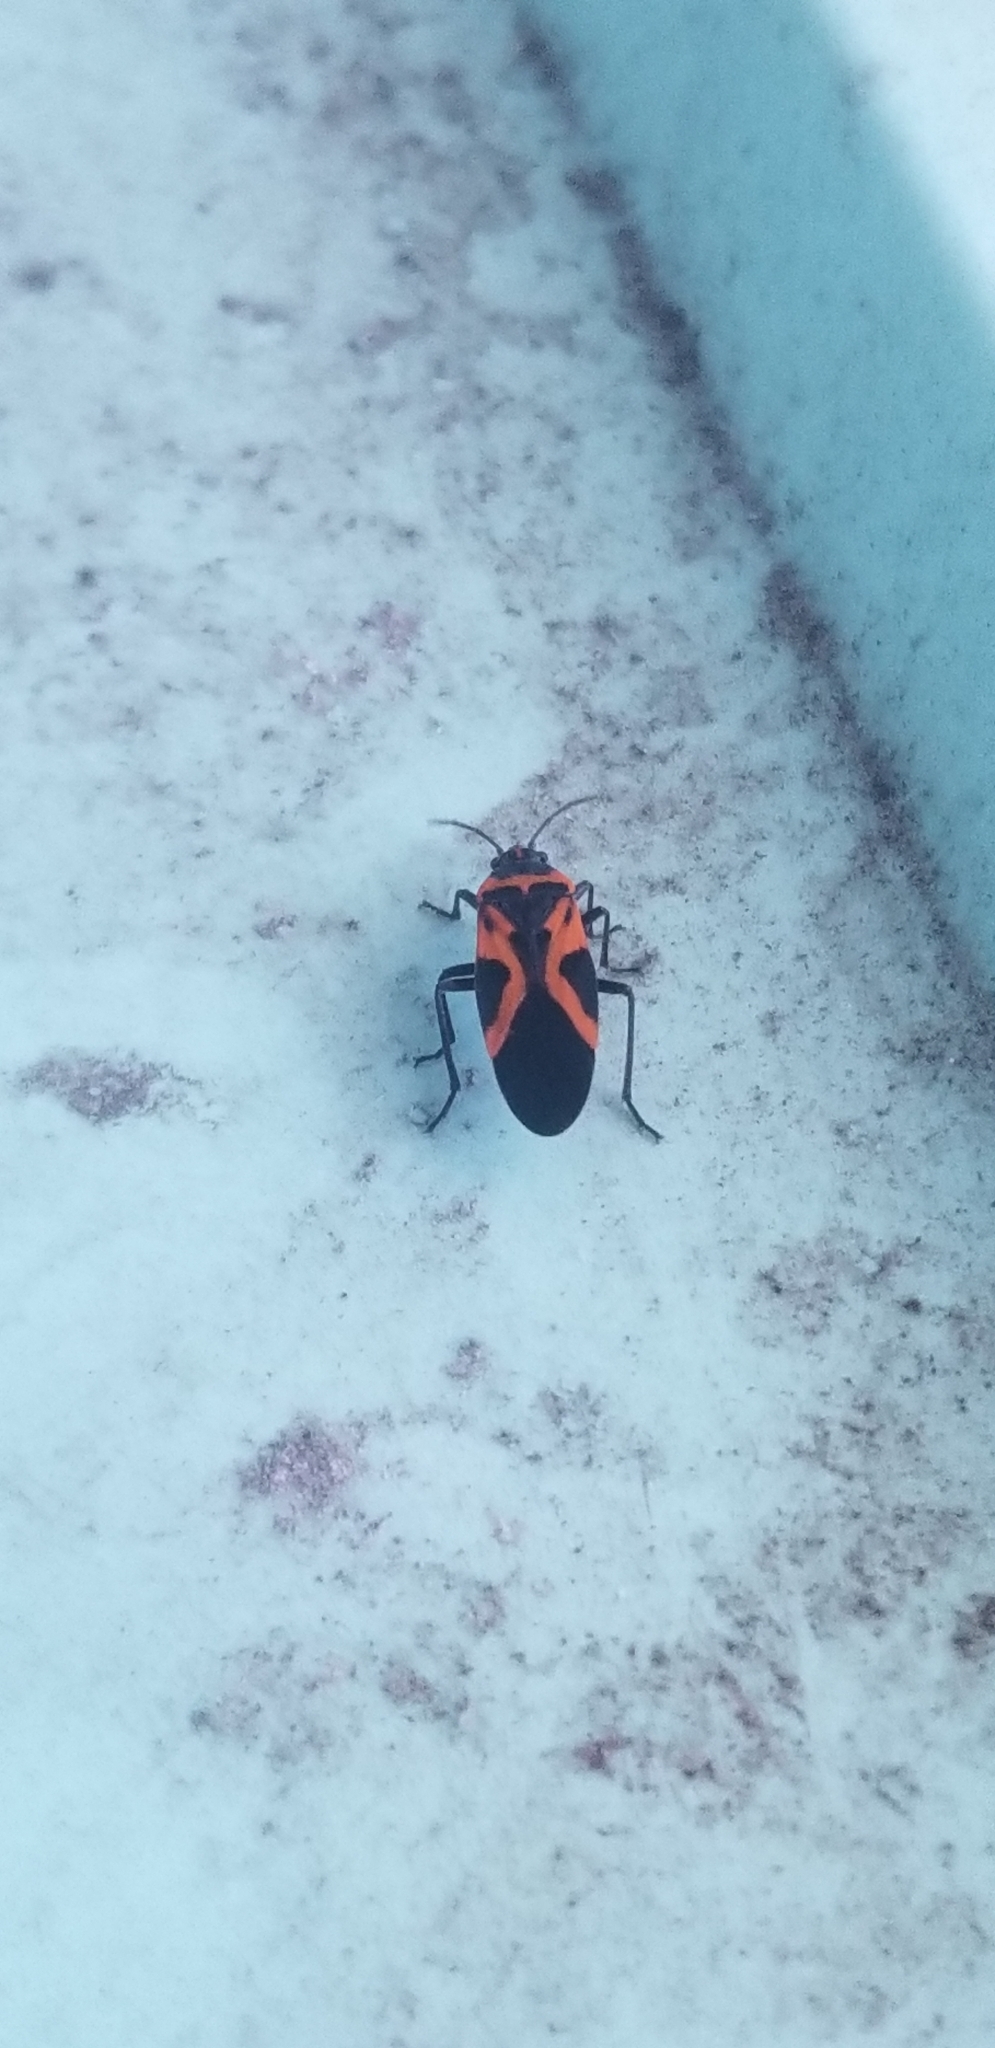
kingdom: Animalia
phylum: Arthropoda
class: Insecta
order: Hemiptera
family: Lygaeidae
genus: Lygaeus
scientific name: Lygaeus turcicus
